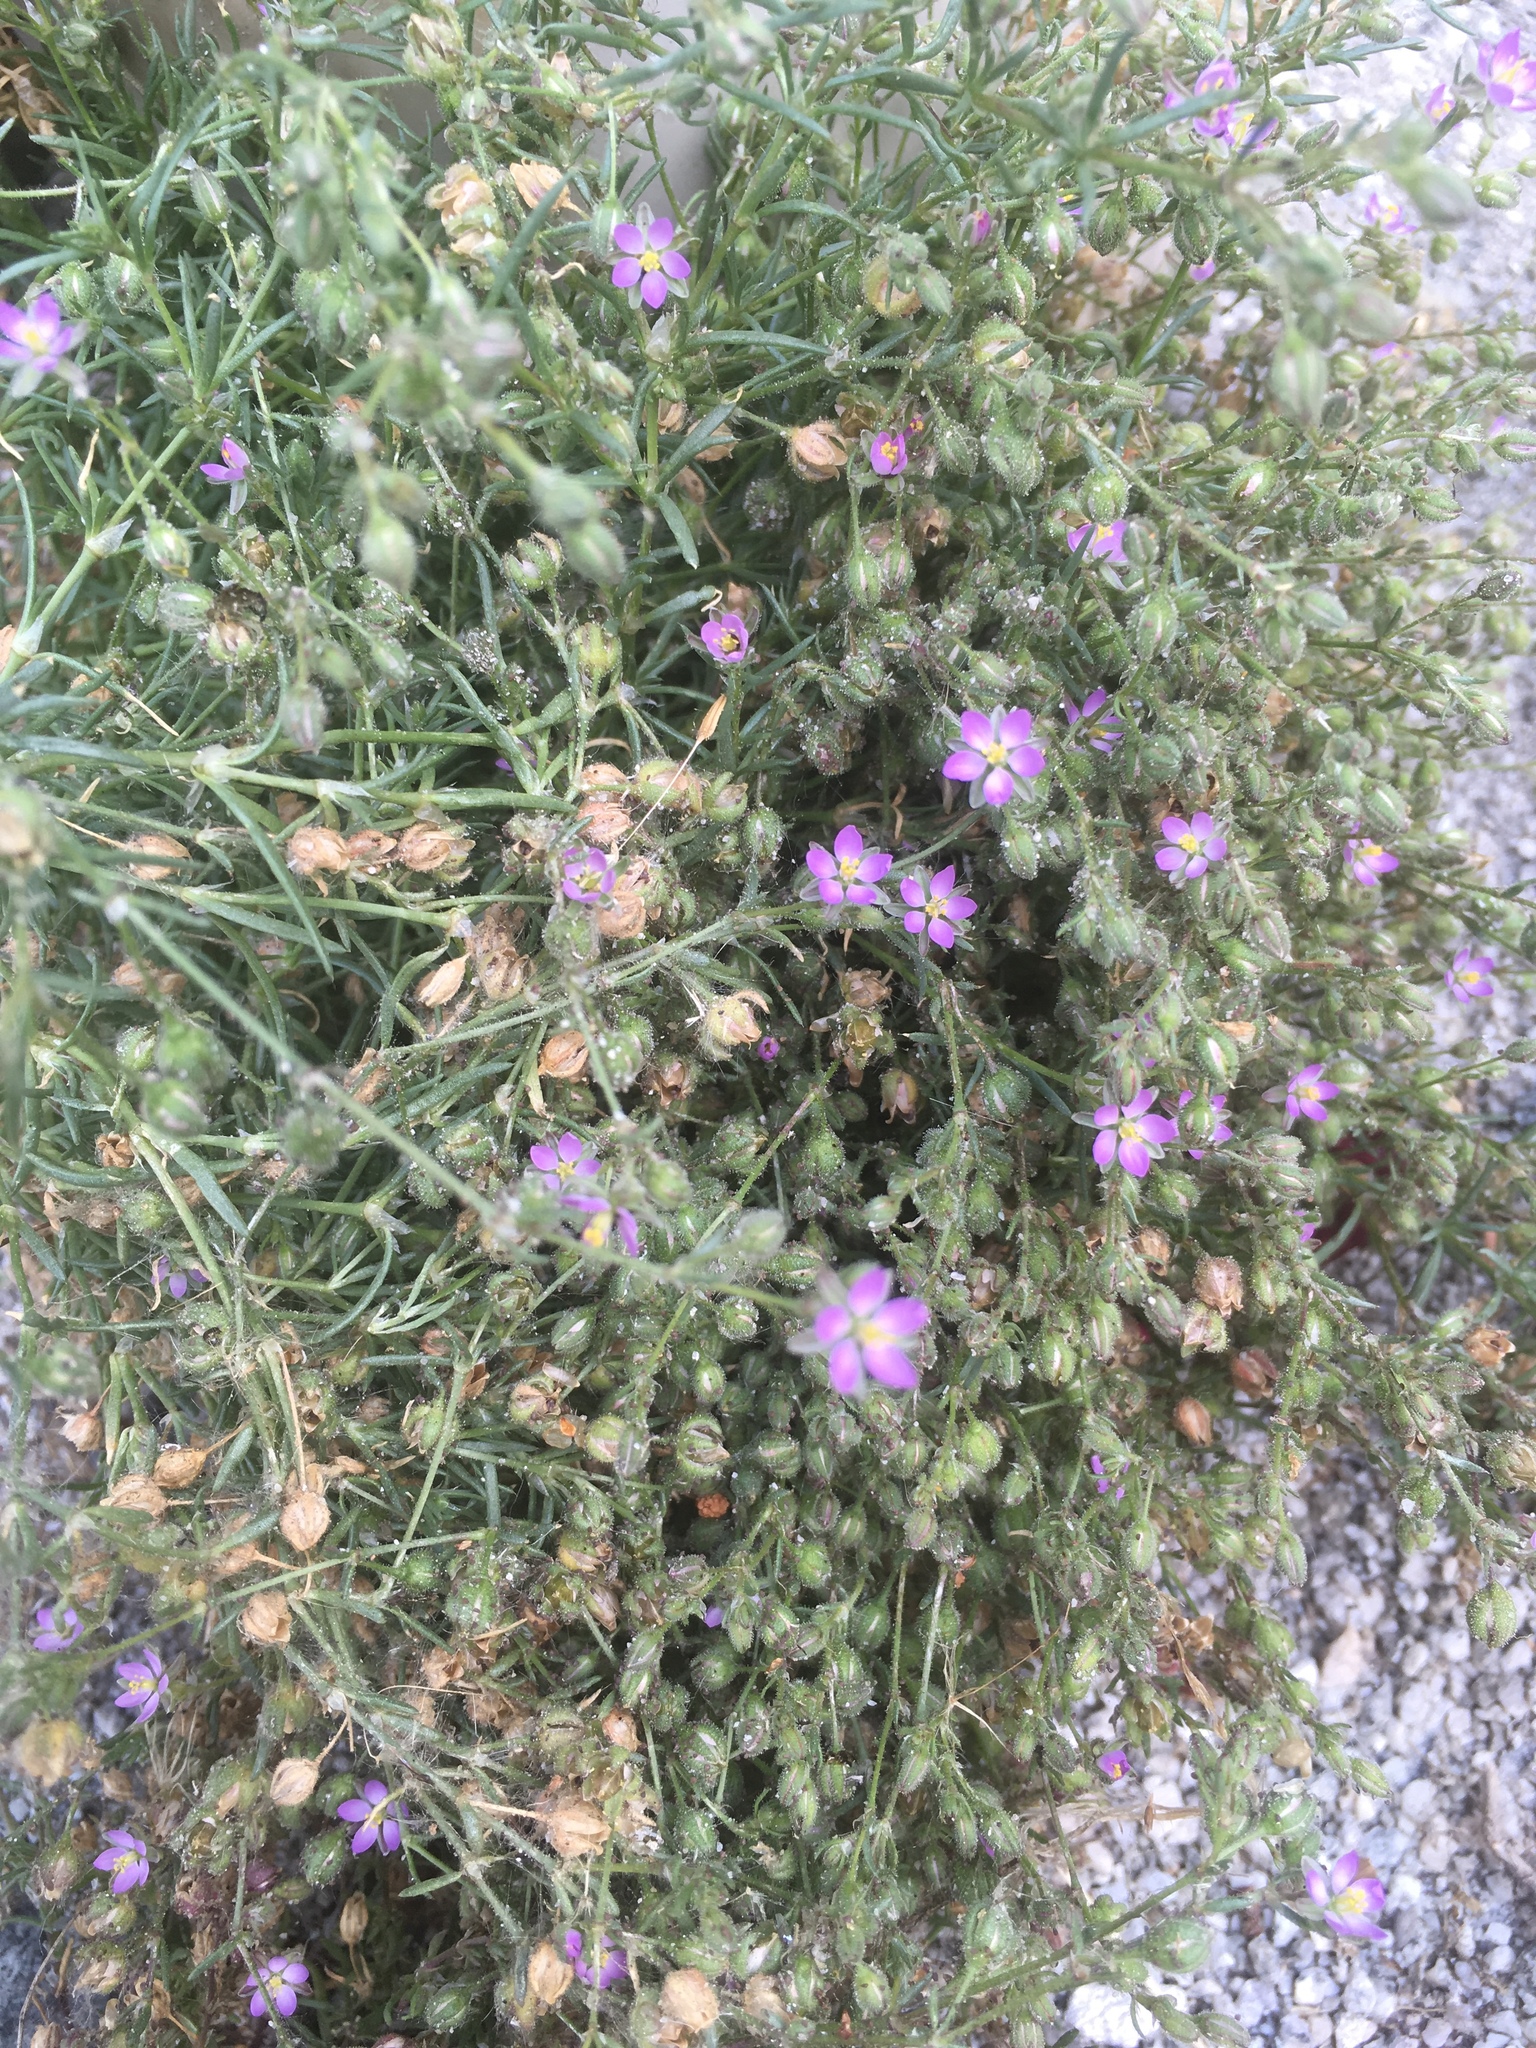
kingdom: Plantae
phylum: Tracheophyta
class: Magnoliopsida
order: Caryophyllales
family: Caryophyllaceae
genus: Spergularia
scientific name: Spergularia rubra
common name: Red sand-spurrey
